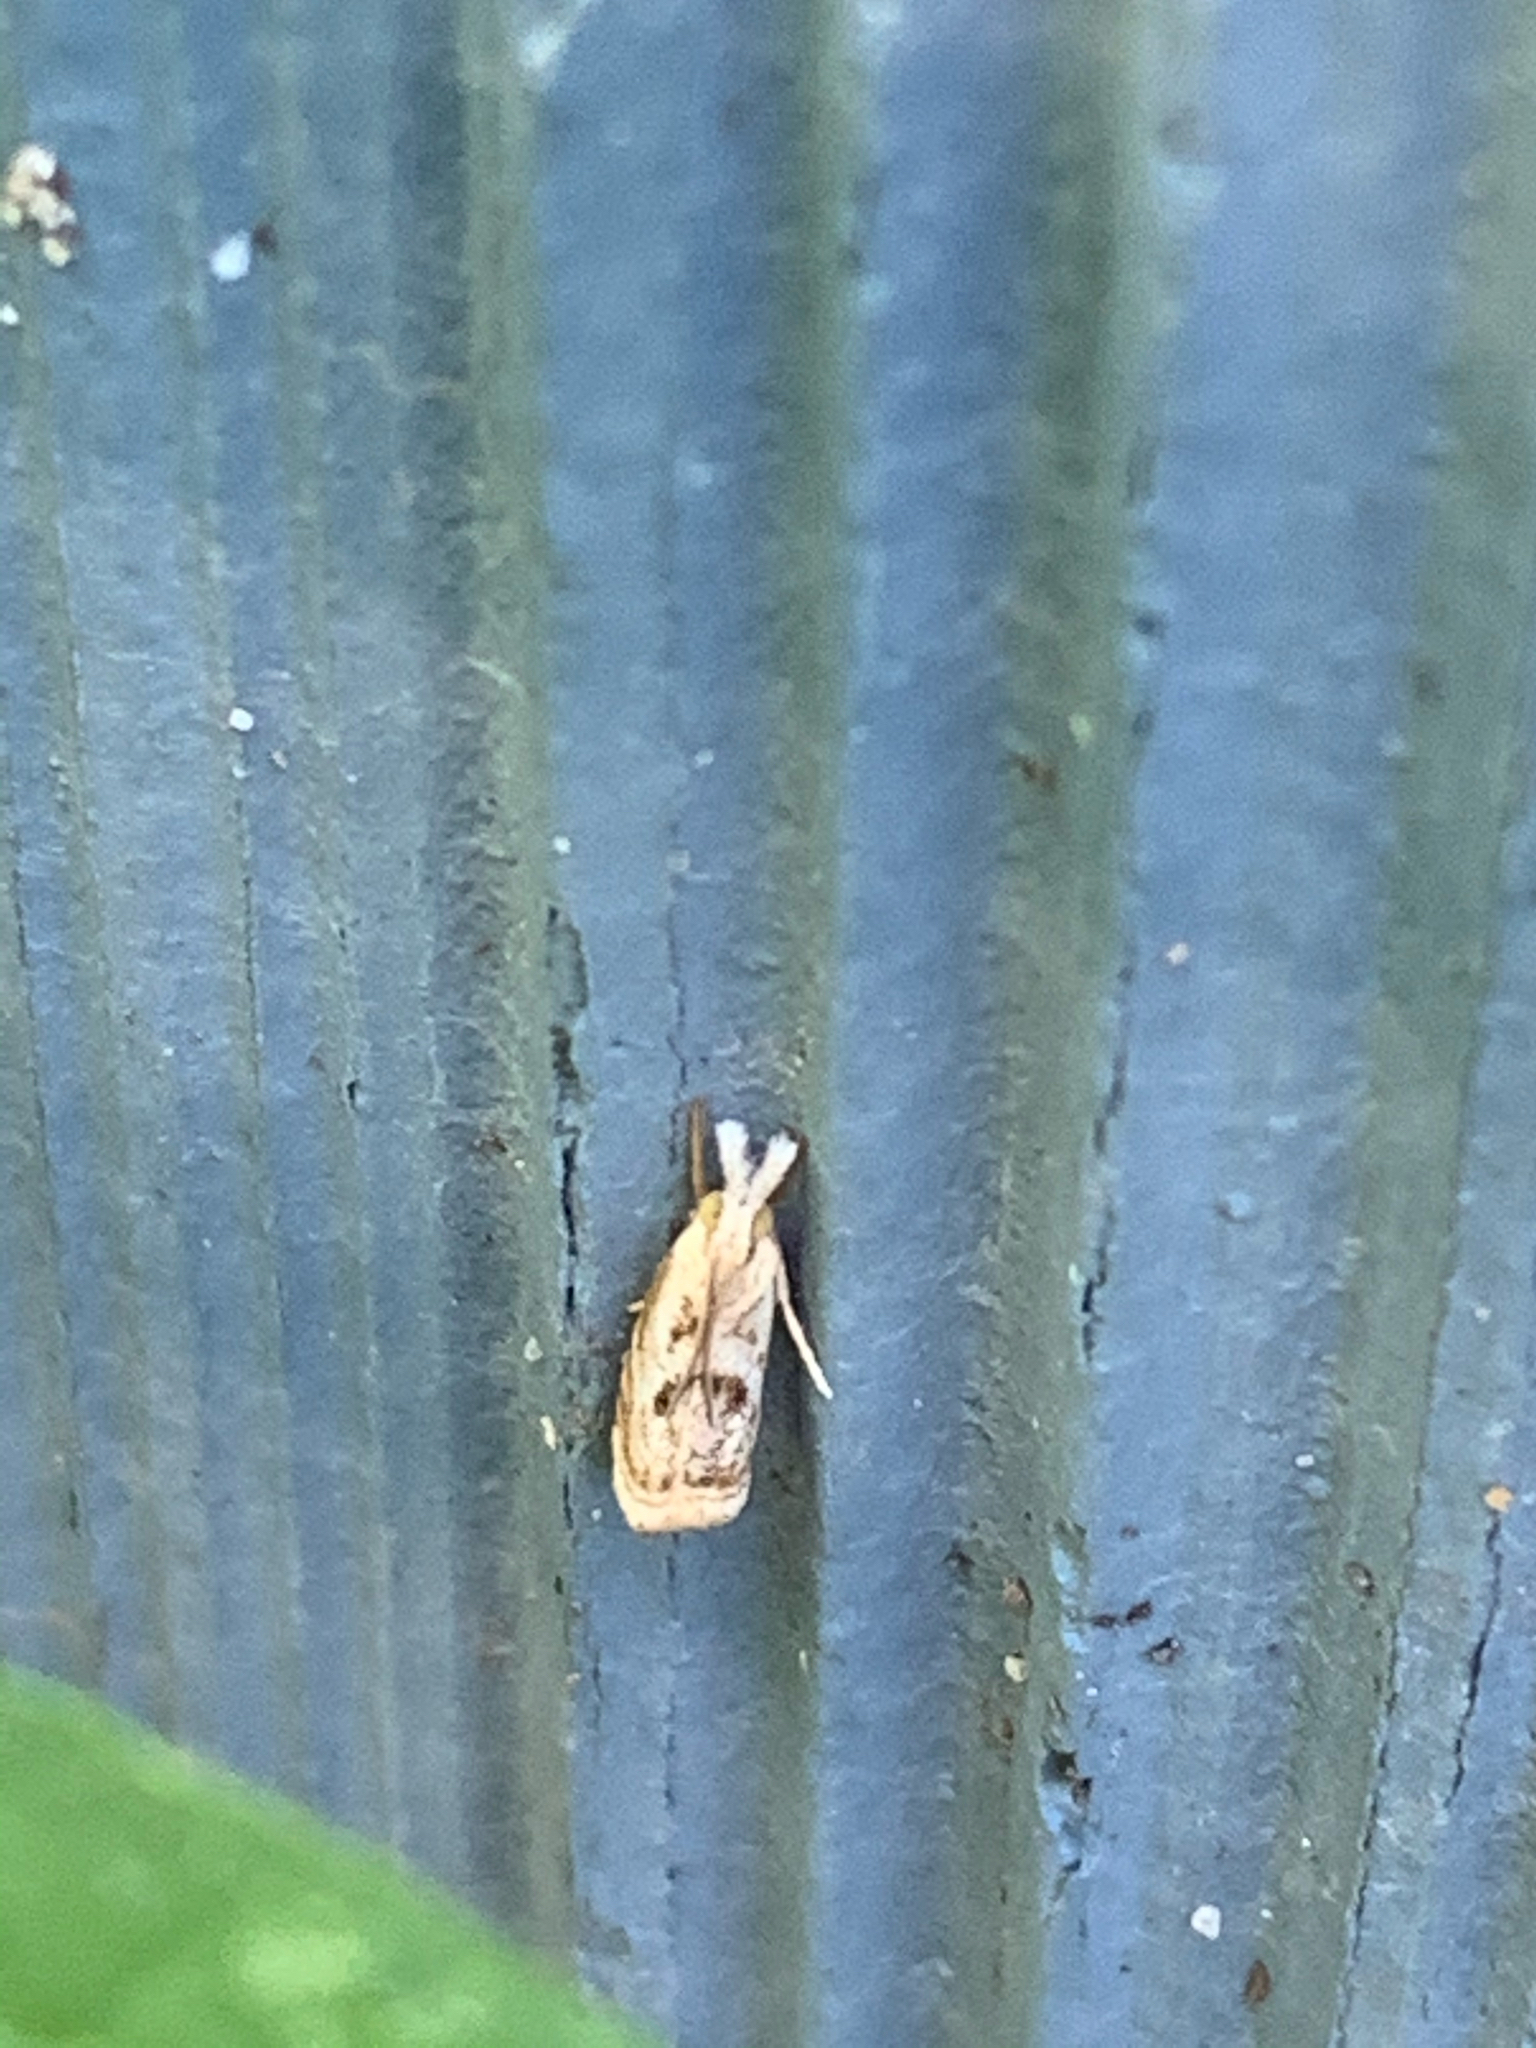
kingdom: Animalia
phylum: Arthropoda
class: Insecta
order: Lepidoptera
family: Crambidae
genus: Microcrambus
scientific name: Microcrambus elegans
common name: Elegant grass-veneer
